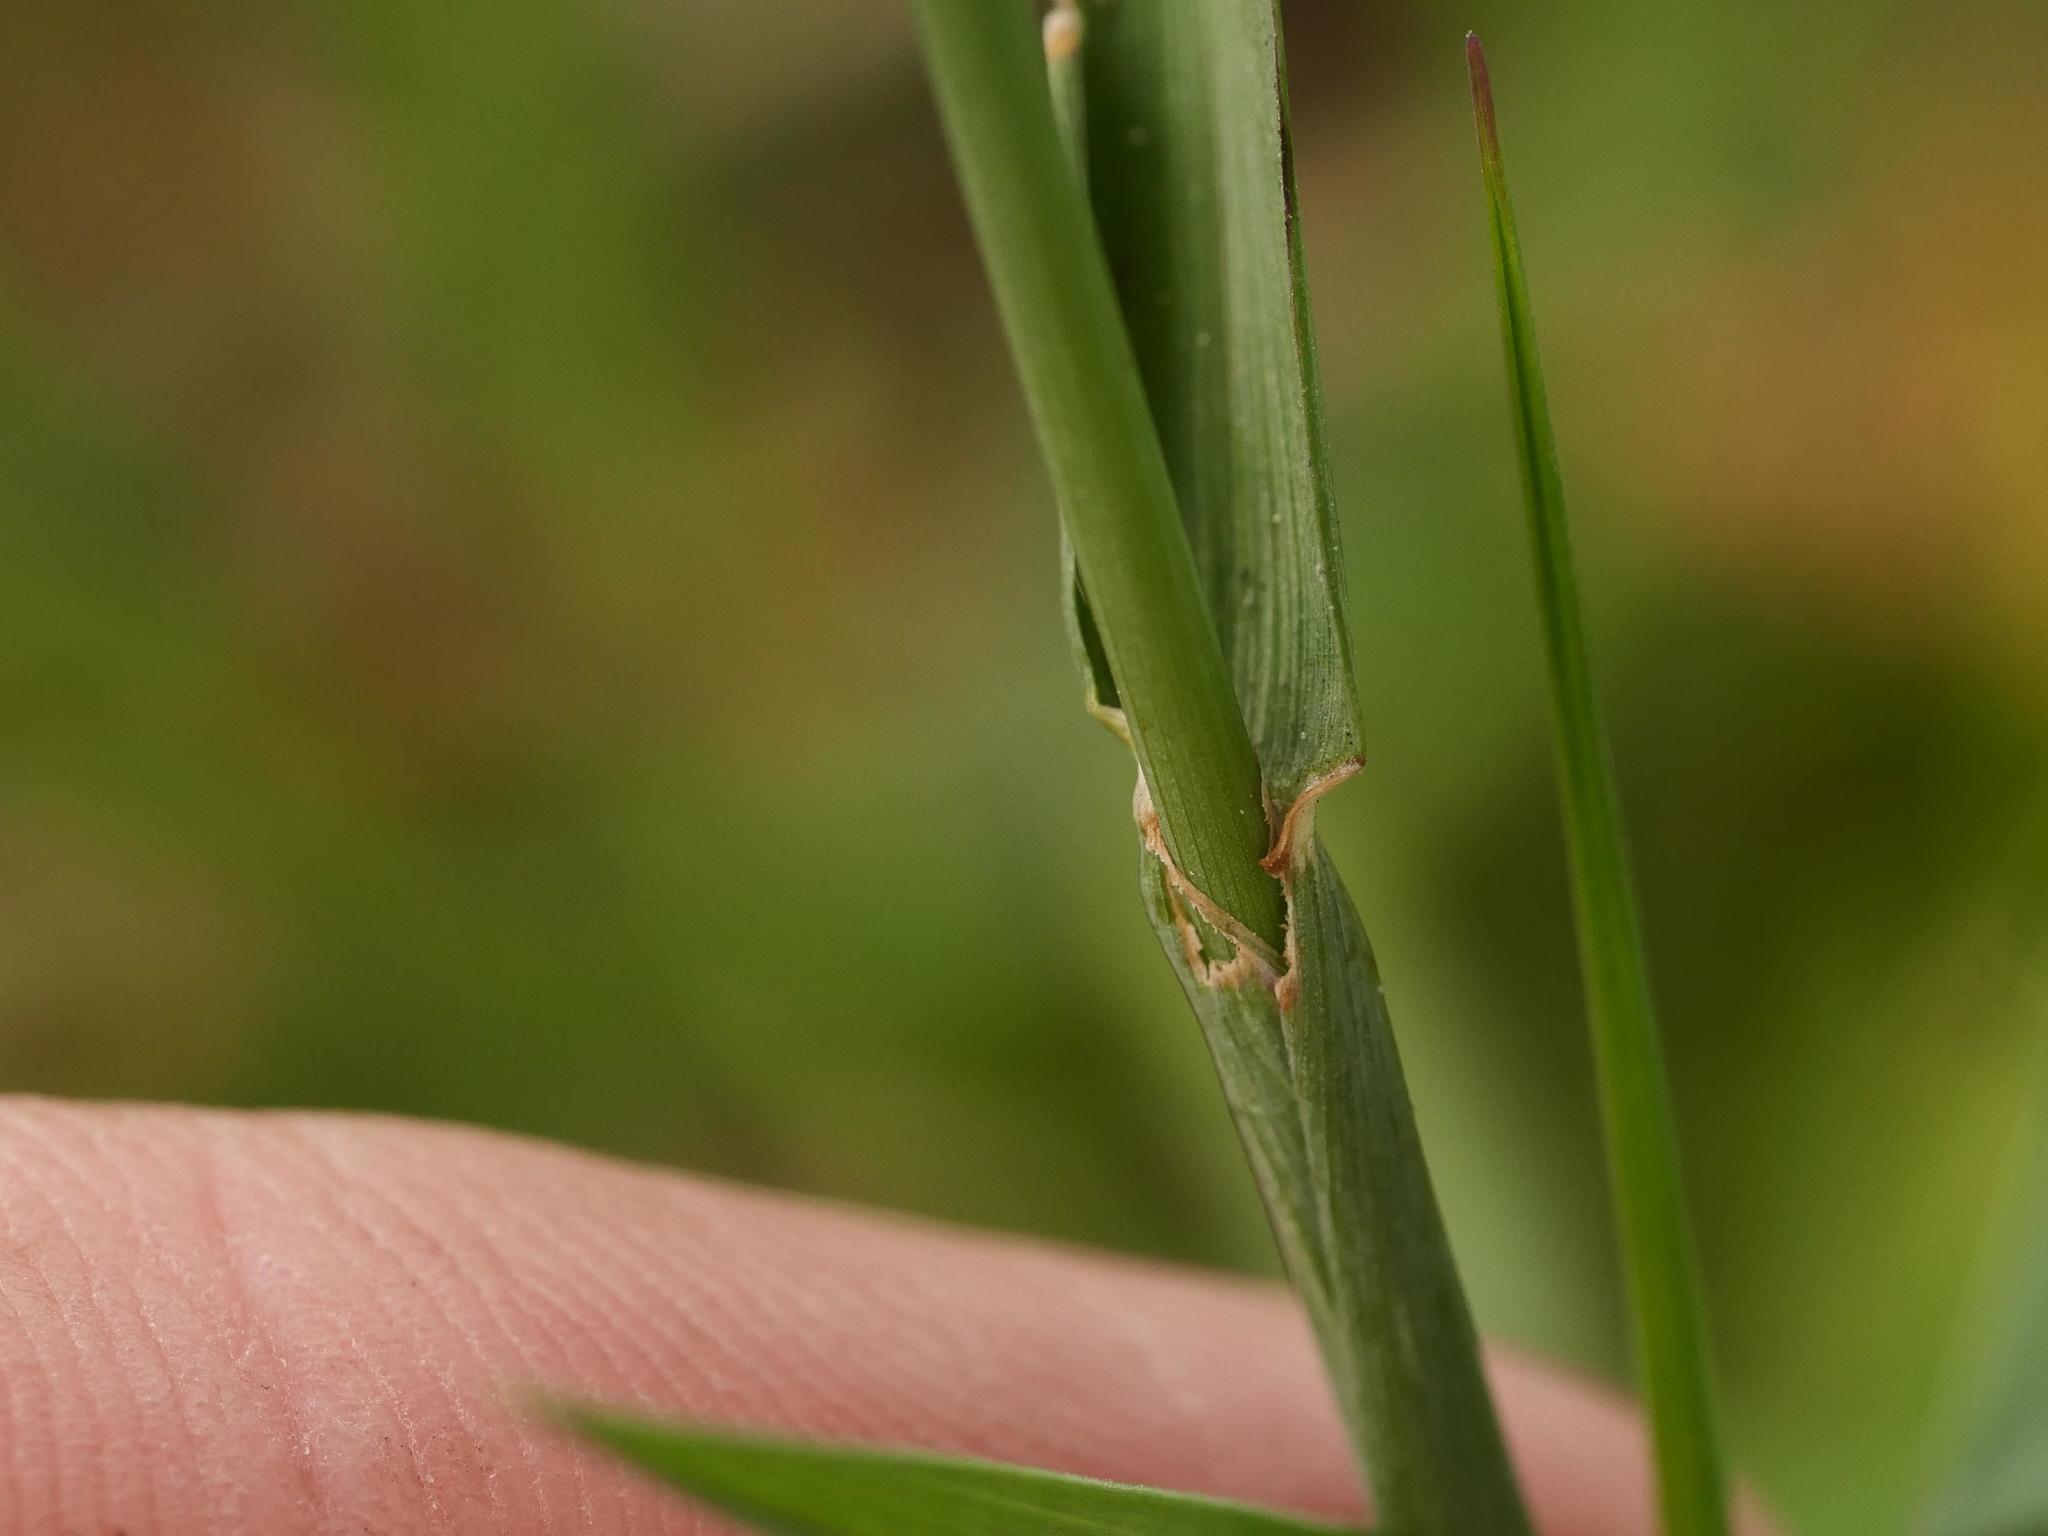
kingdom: Plantae
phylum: Tracheophyta
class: Liliopsida
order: Poales
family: Poaceae
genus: Alopecurus
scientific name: Alopecurus pratensis
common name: Meadow foxtail
